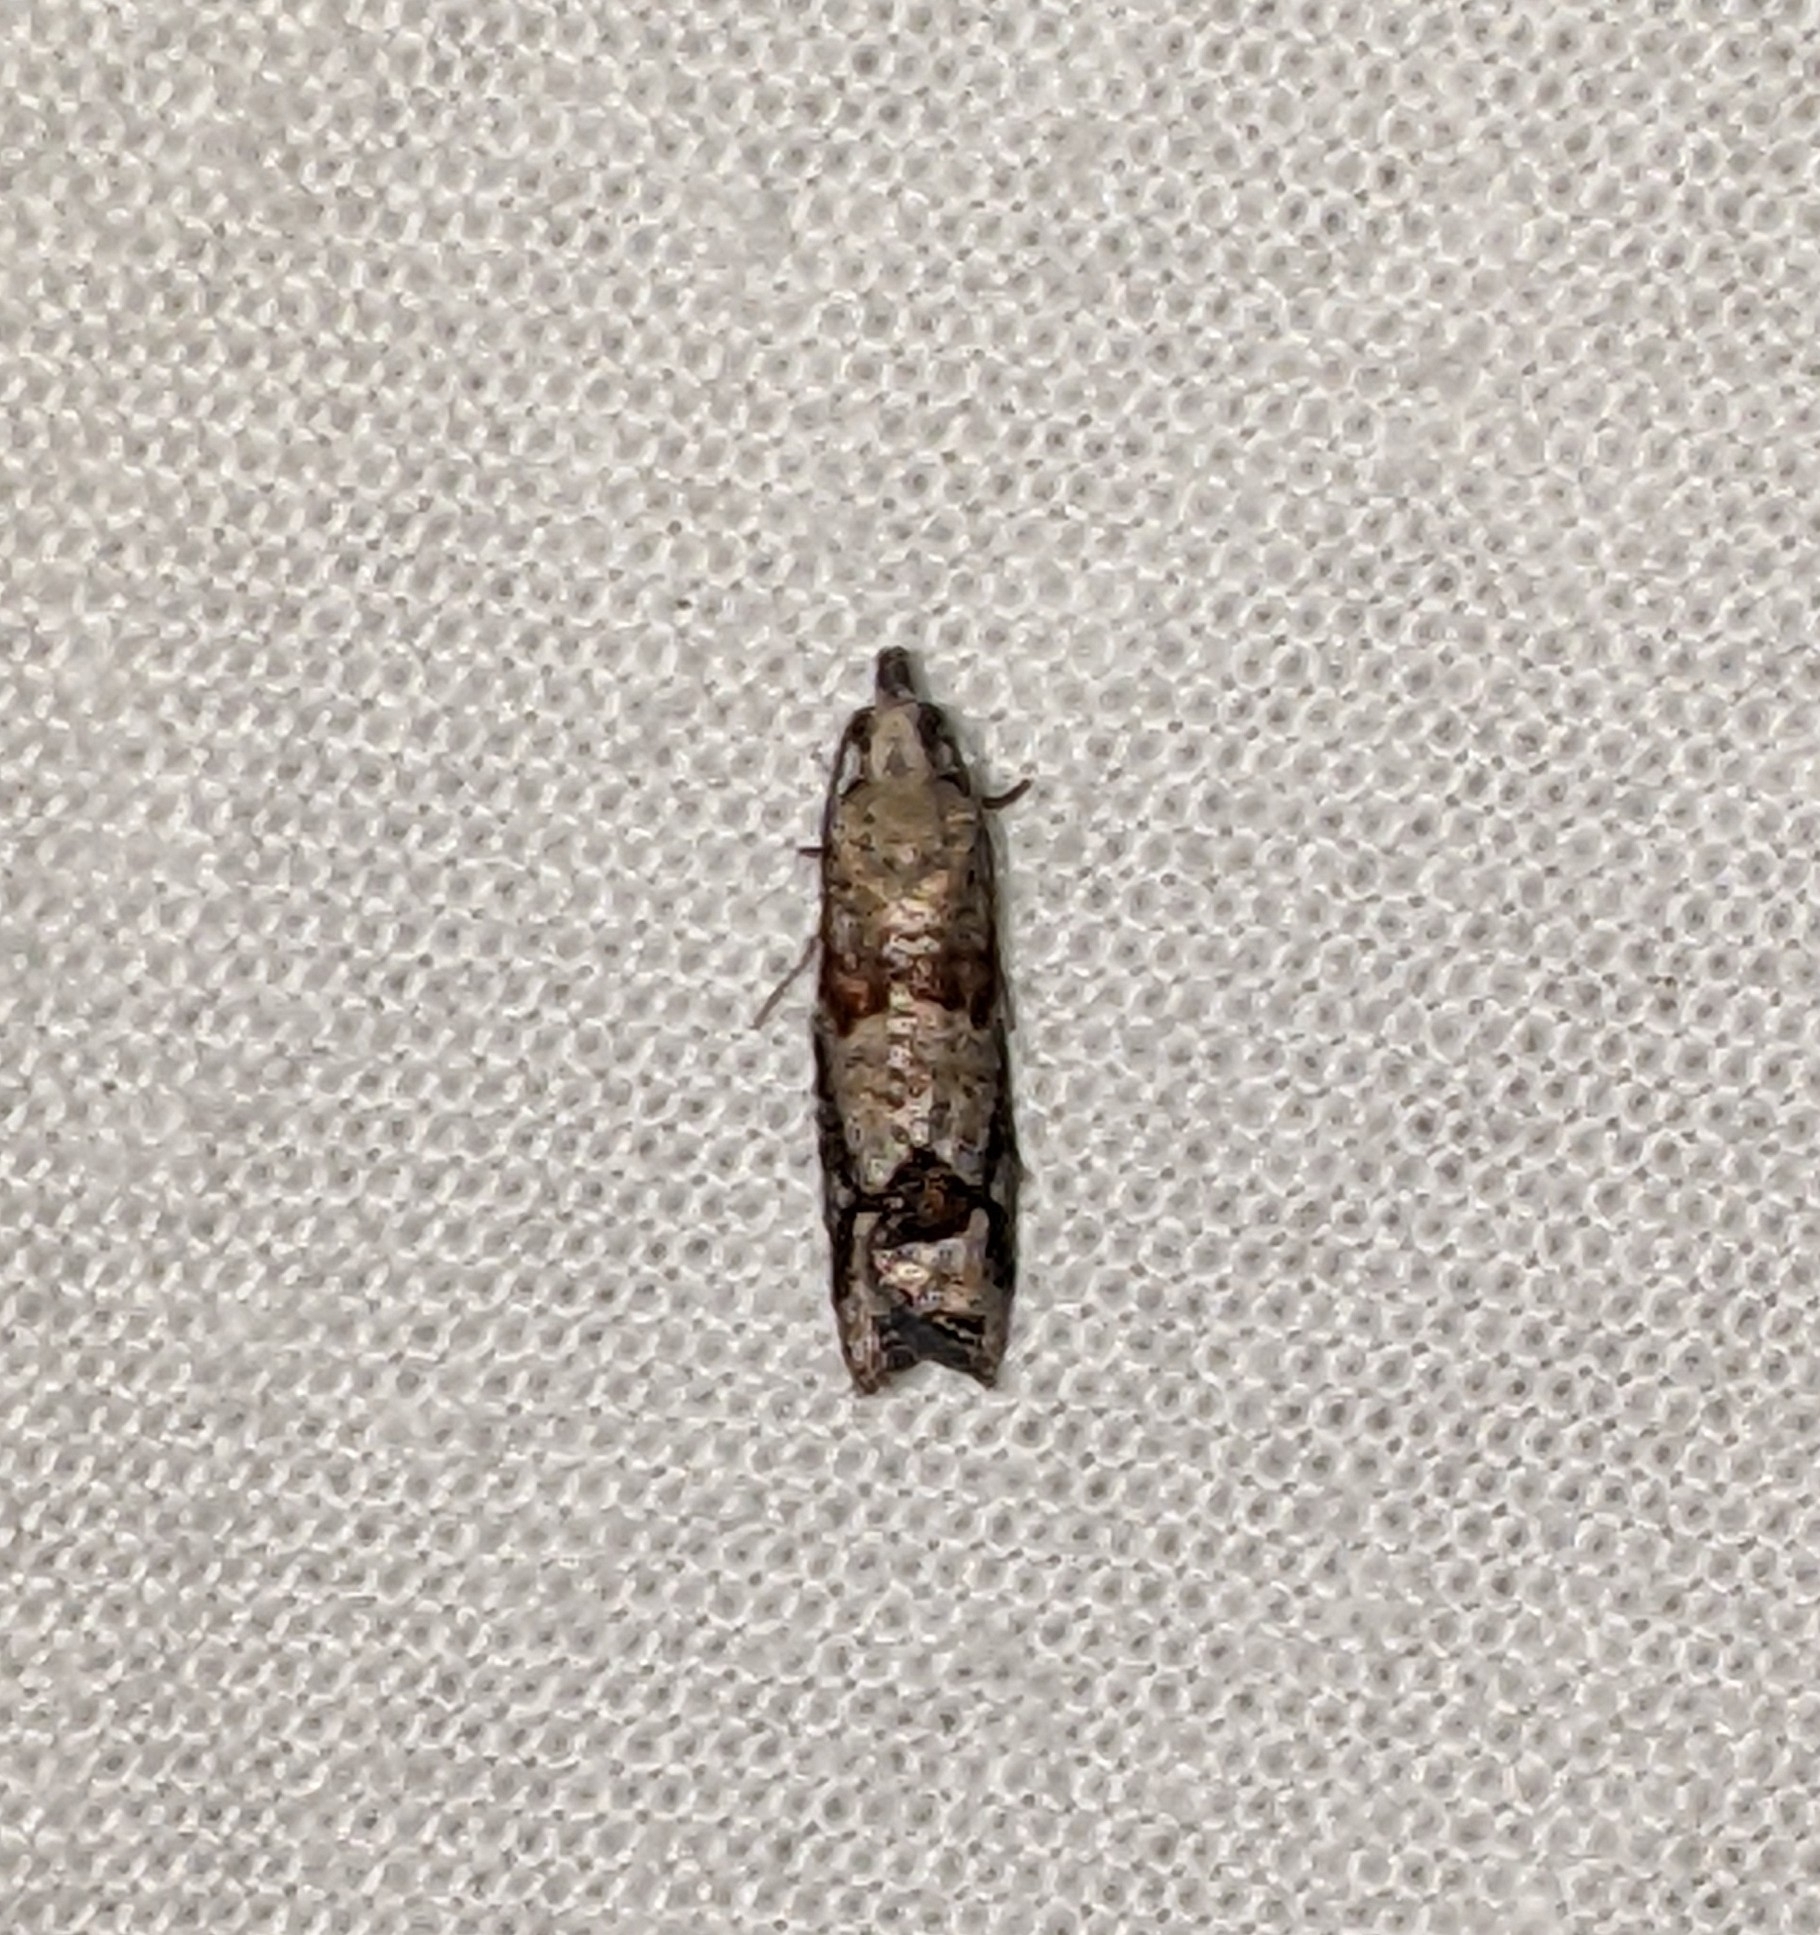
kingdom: Animalia
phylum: Arthropoda
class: Insecta
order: Lepidoptera
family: Tortricidae
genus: Epinotia
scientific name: Epinotia radicana
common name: Red-striped needleworm moth
